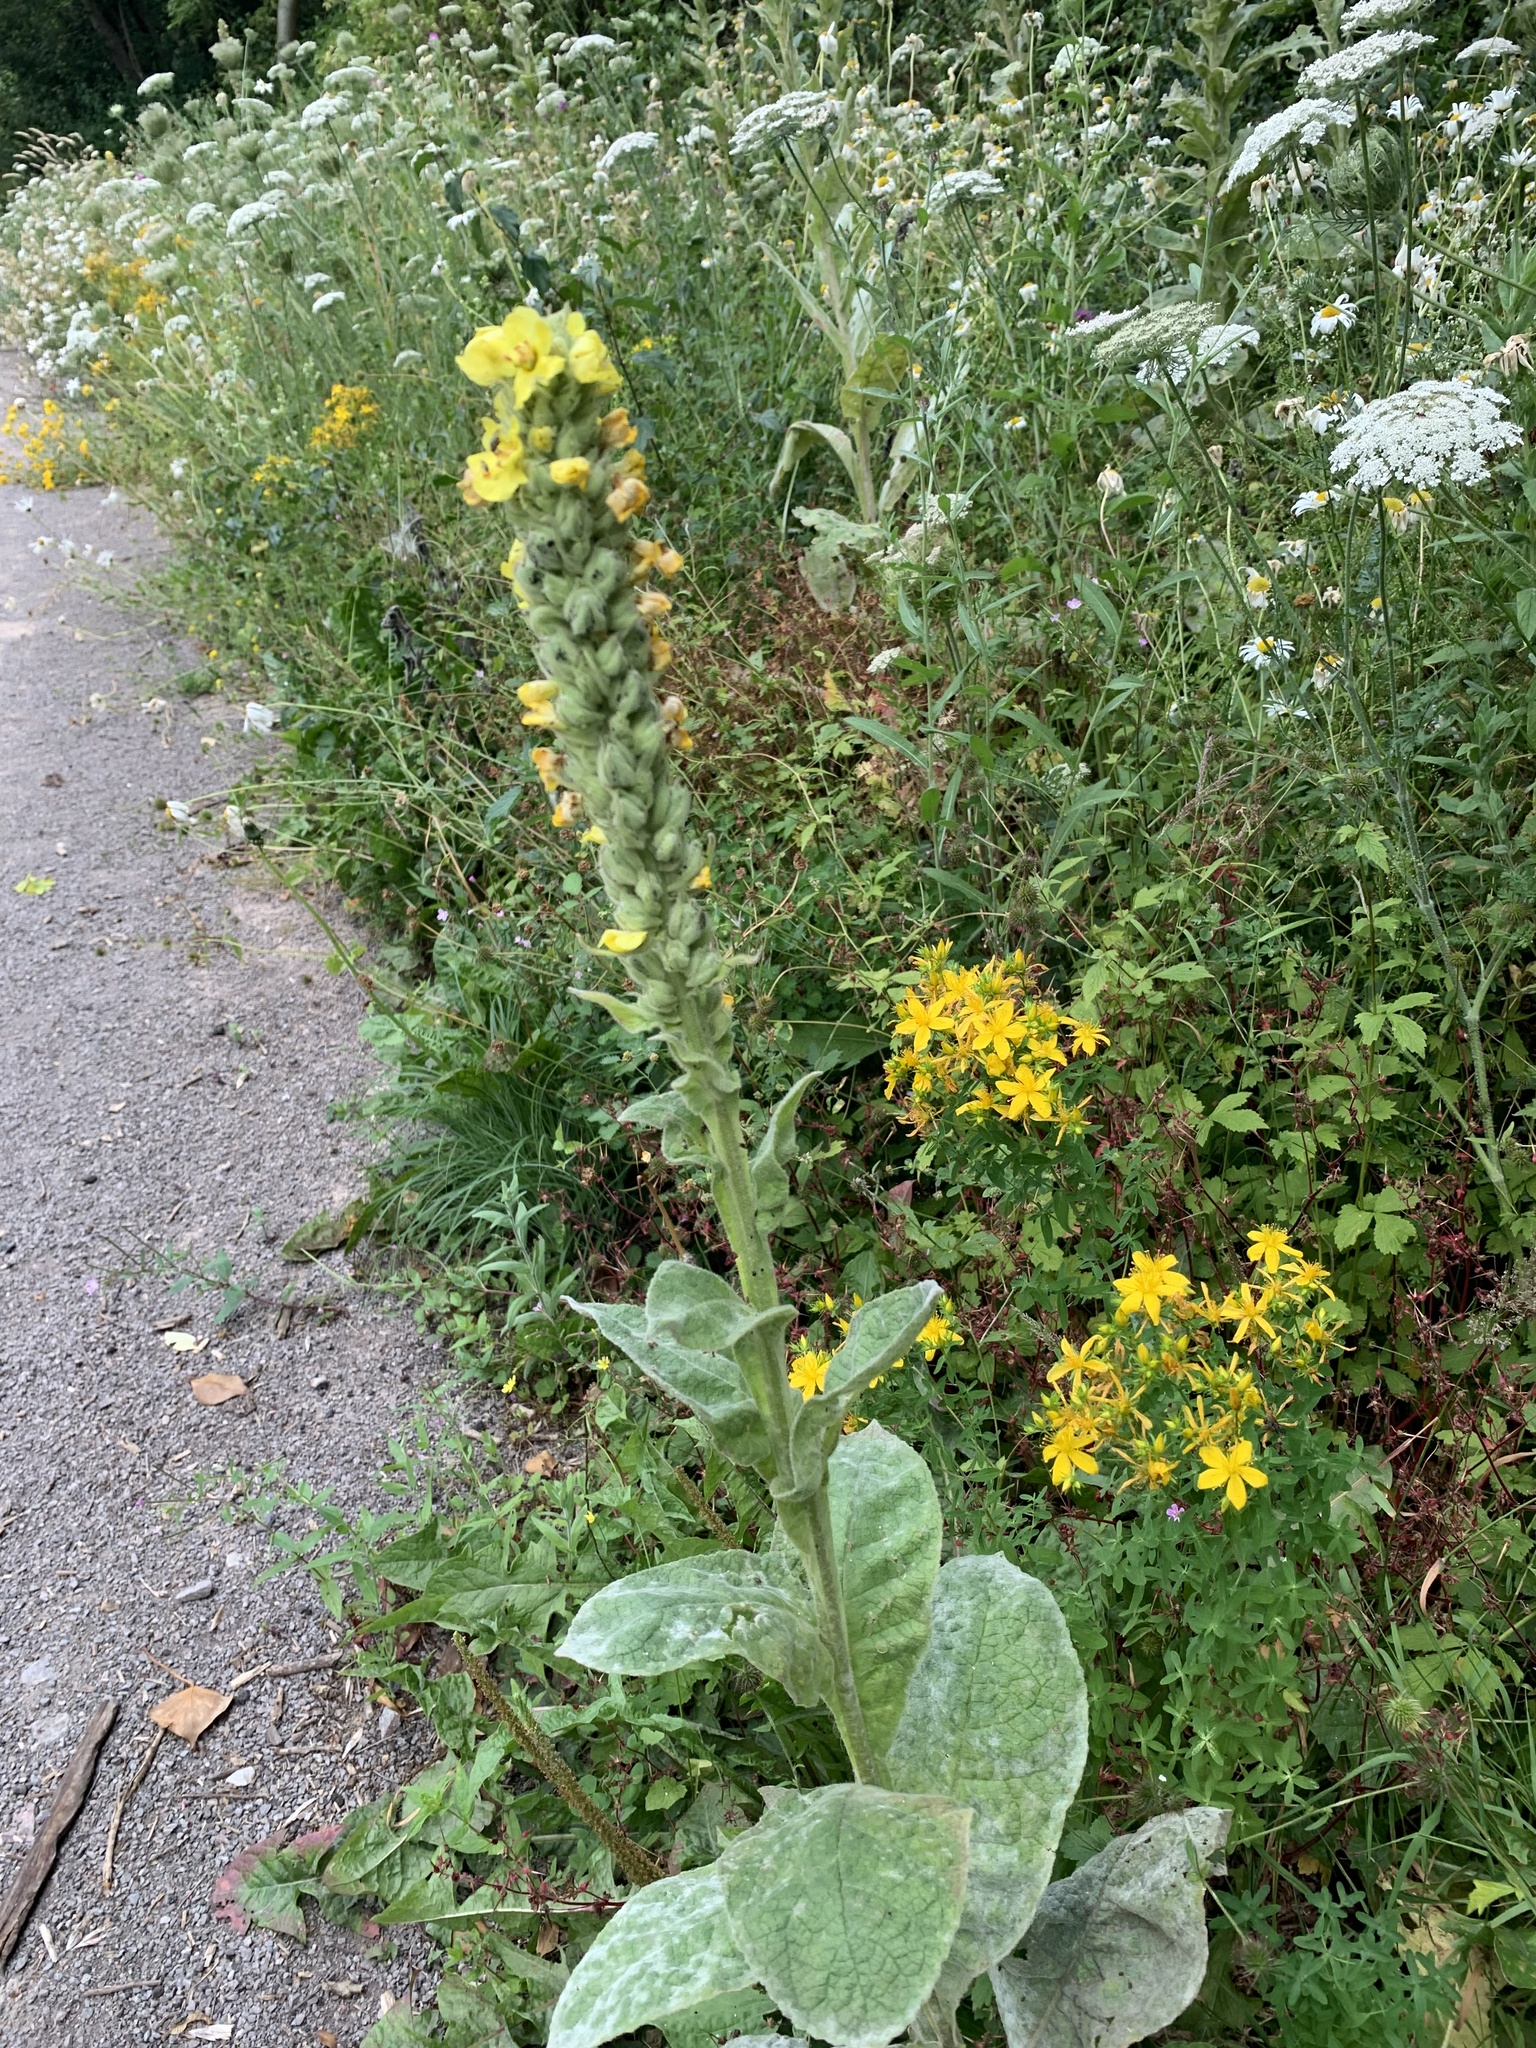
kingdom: Plantae
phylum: Tracheophyta
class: Magnoliopsida
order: Lamiales
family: Scrophulariaceae
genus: Verbascum
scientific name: Verbascum thapsus
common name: Common mullein
